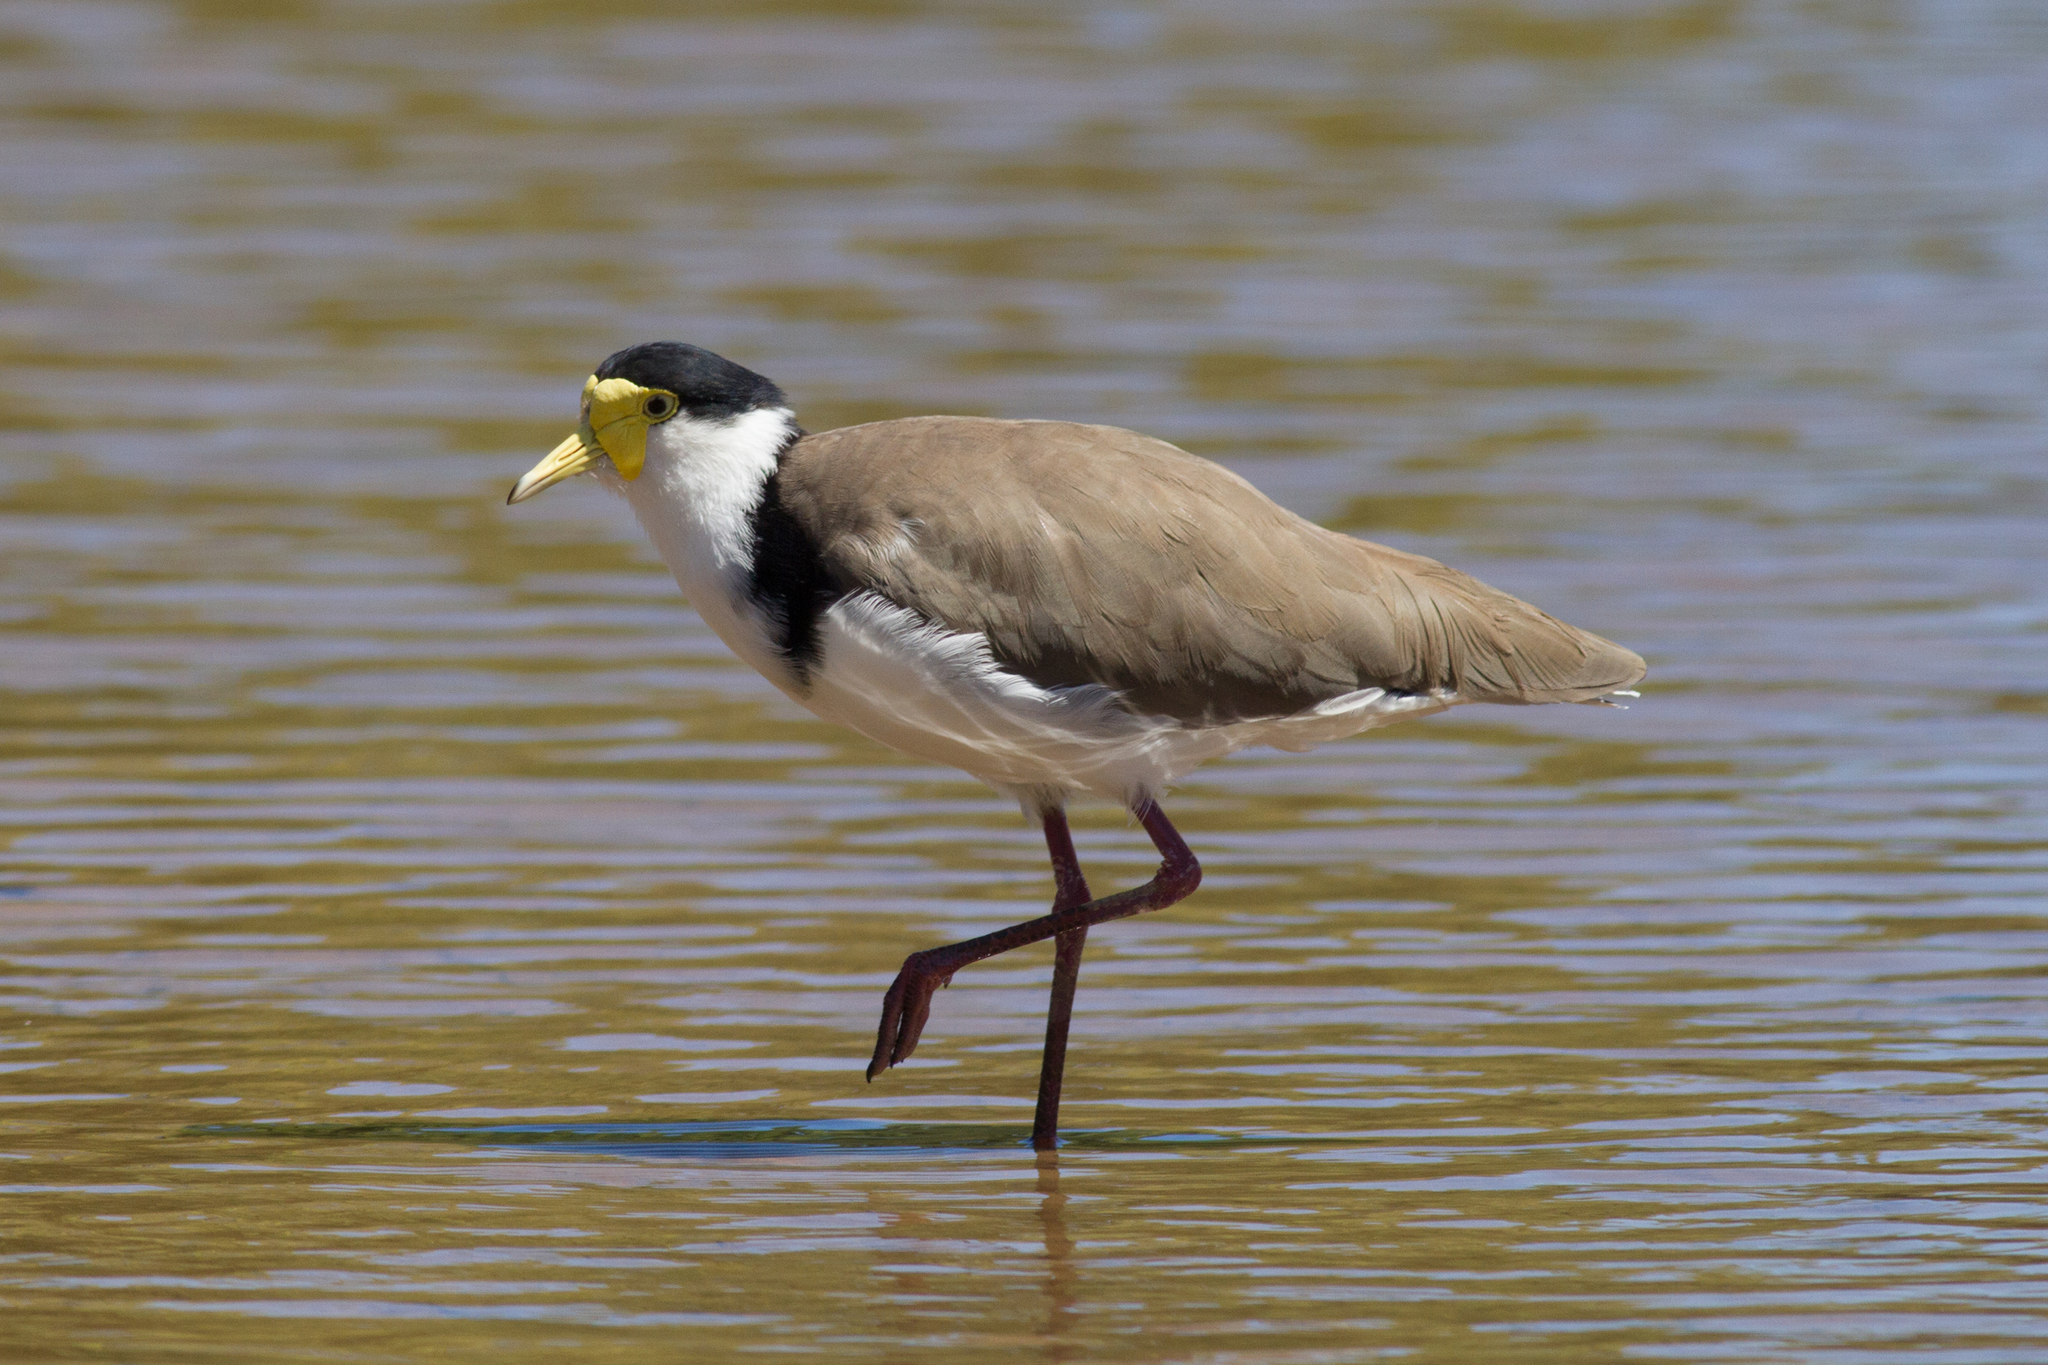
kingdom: Animalia
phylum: Chordata
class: Aves
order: Charadriiformes
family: Charadriidae
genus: Vanellus
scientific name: Vanellus miles
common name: Masked lapwing
